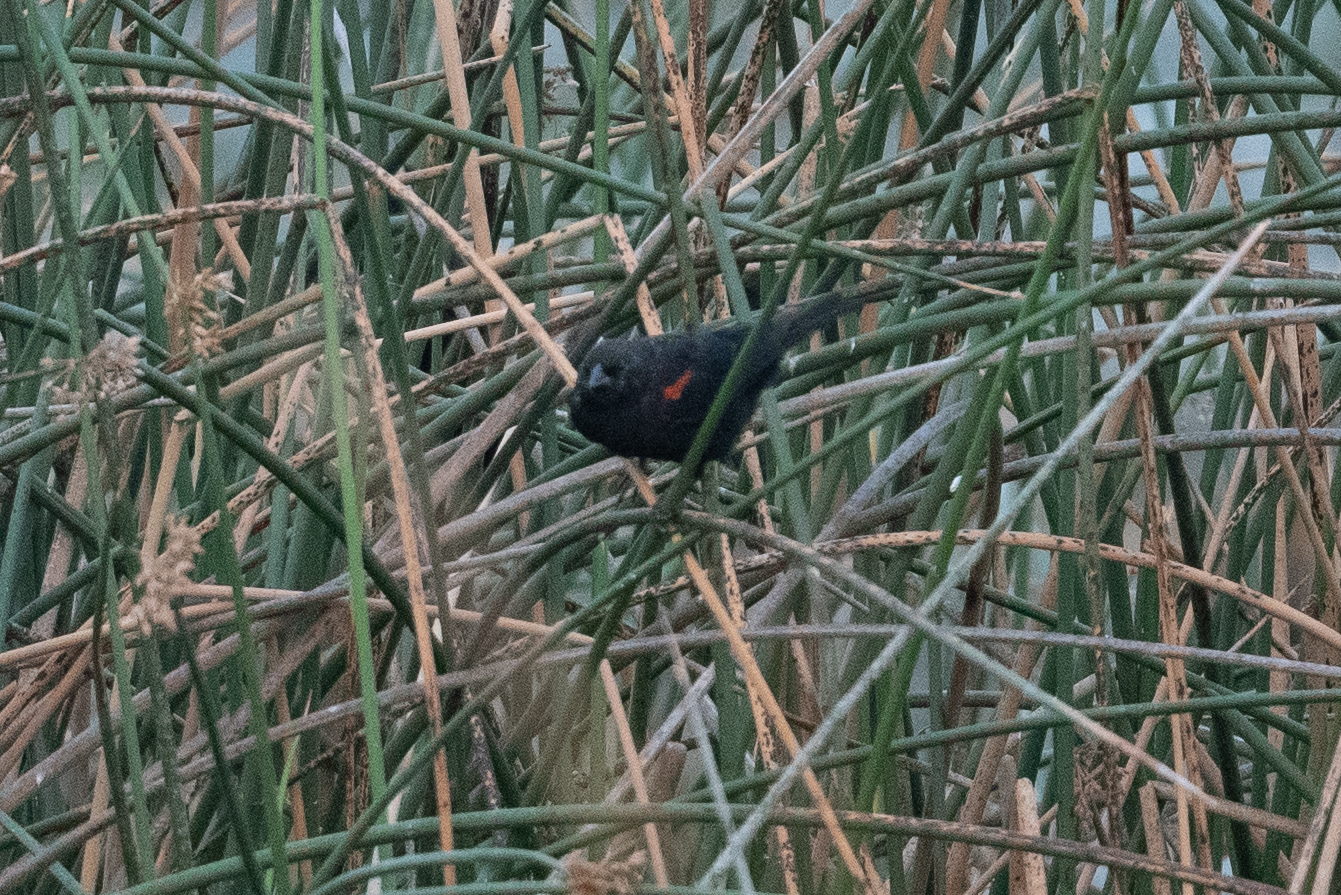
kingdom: Animalia
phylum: Chordata
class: Aves
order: Passeriformes
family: Icteridae
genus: Agelaius
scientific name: Agelaius phoeniceus
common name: Red-winged blackbird
